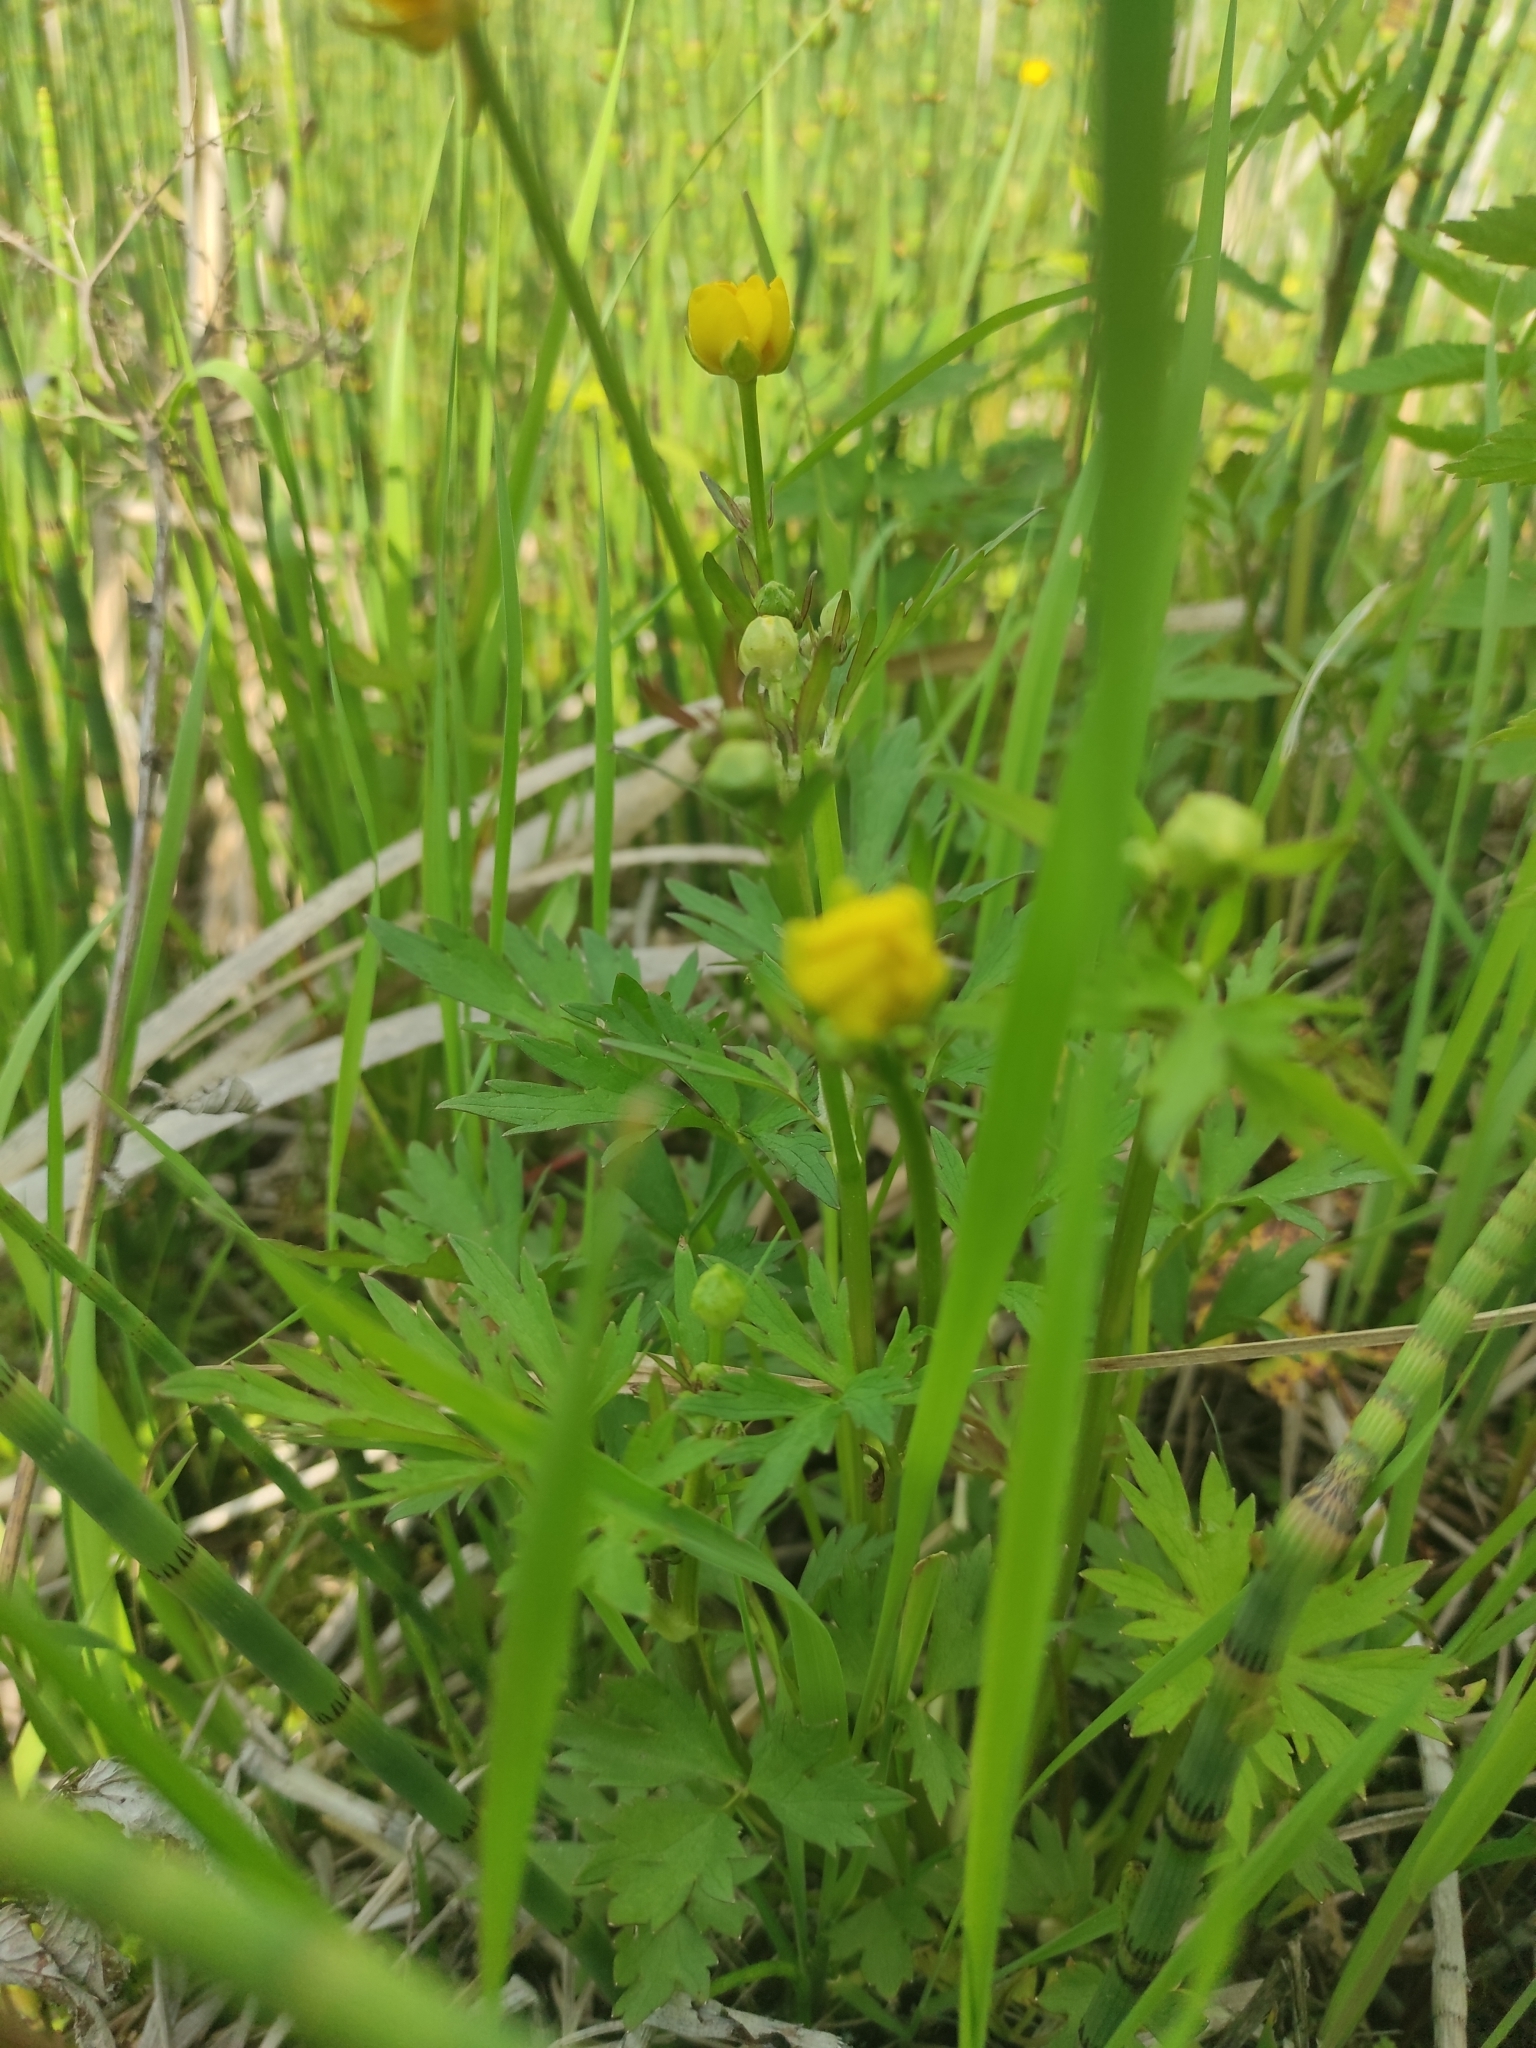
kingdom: Plantae
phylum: Tracheophyta
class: Magnoliopsida
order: Ranunculales
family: Ranunculaceae
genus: Ranunculus
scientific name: Ranunculus repens
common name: Creeping buttercup
